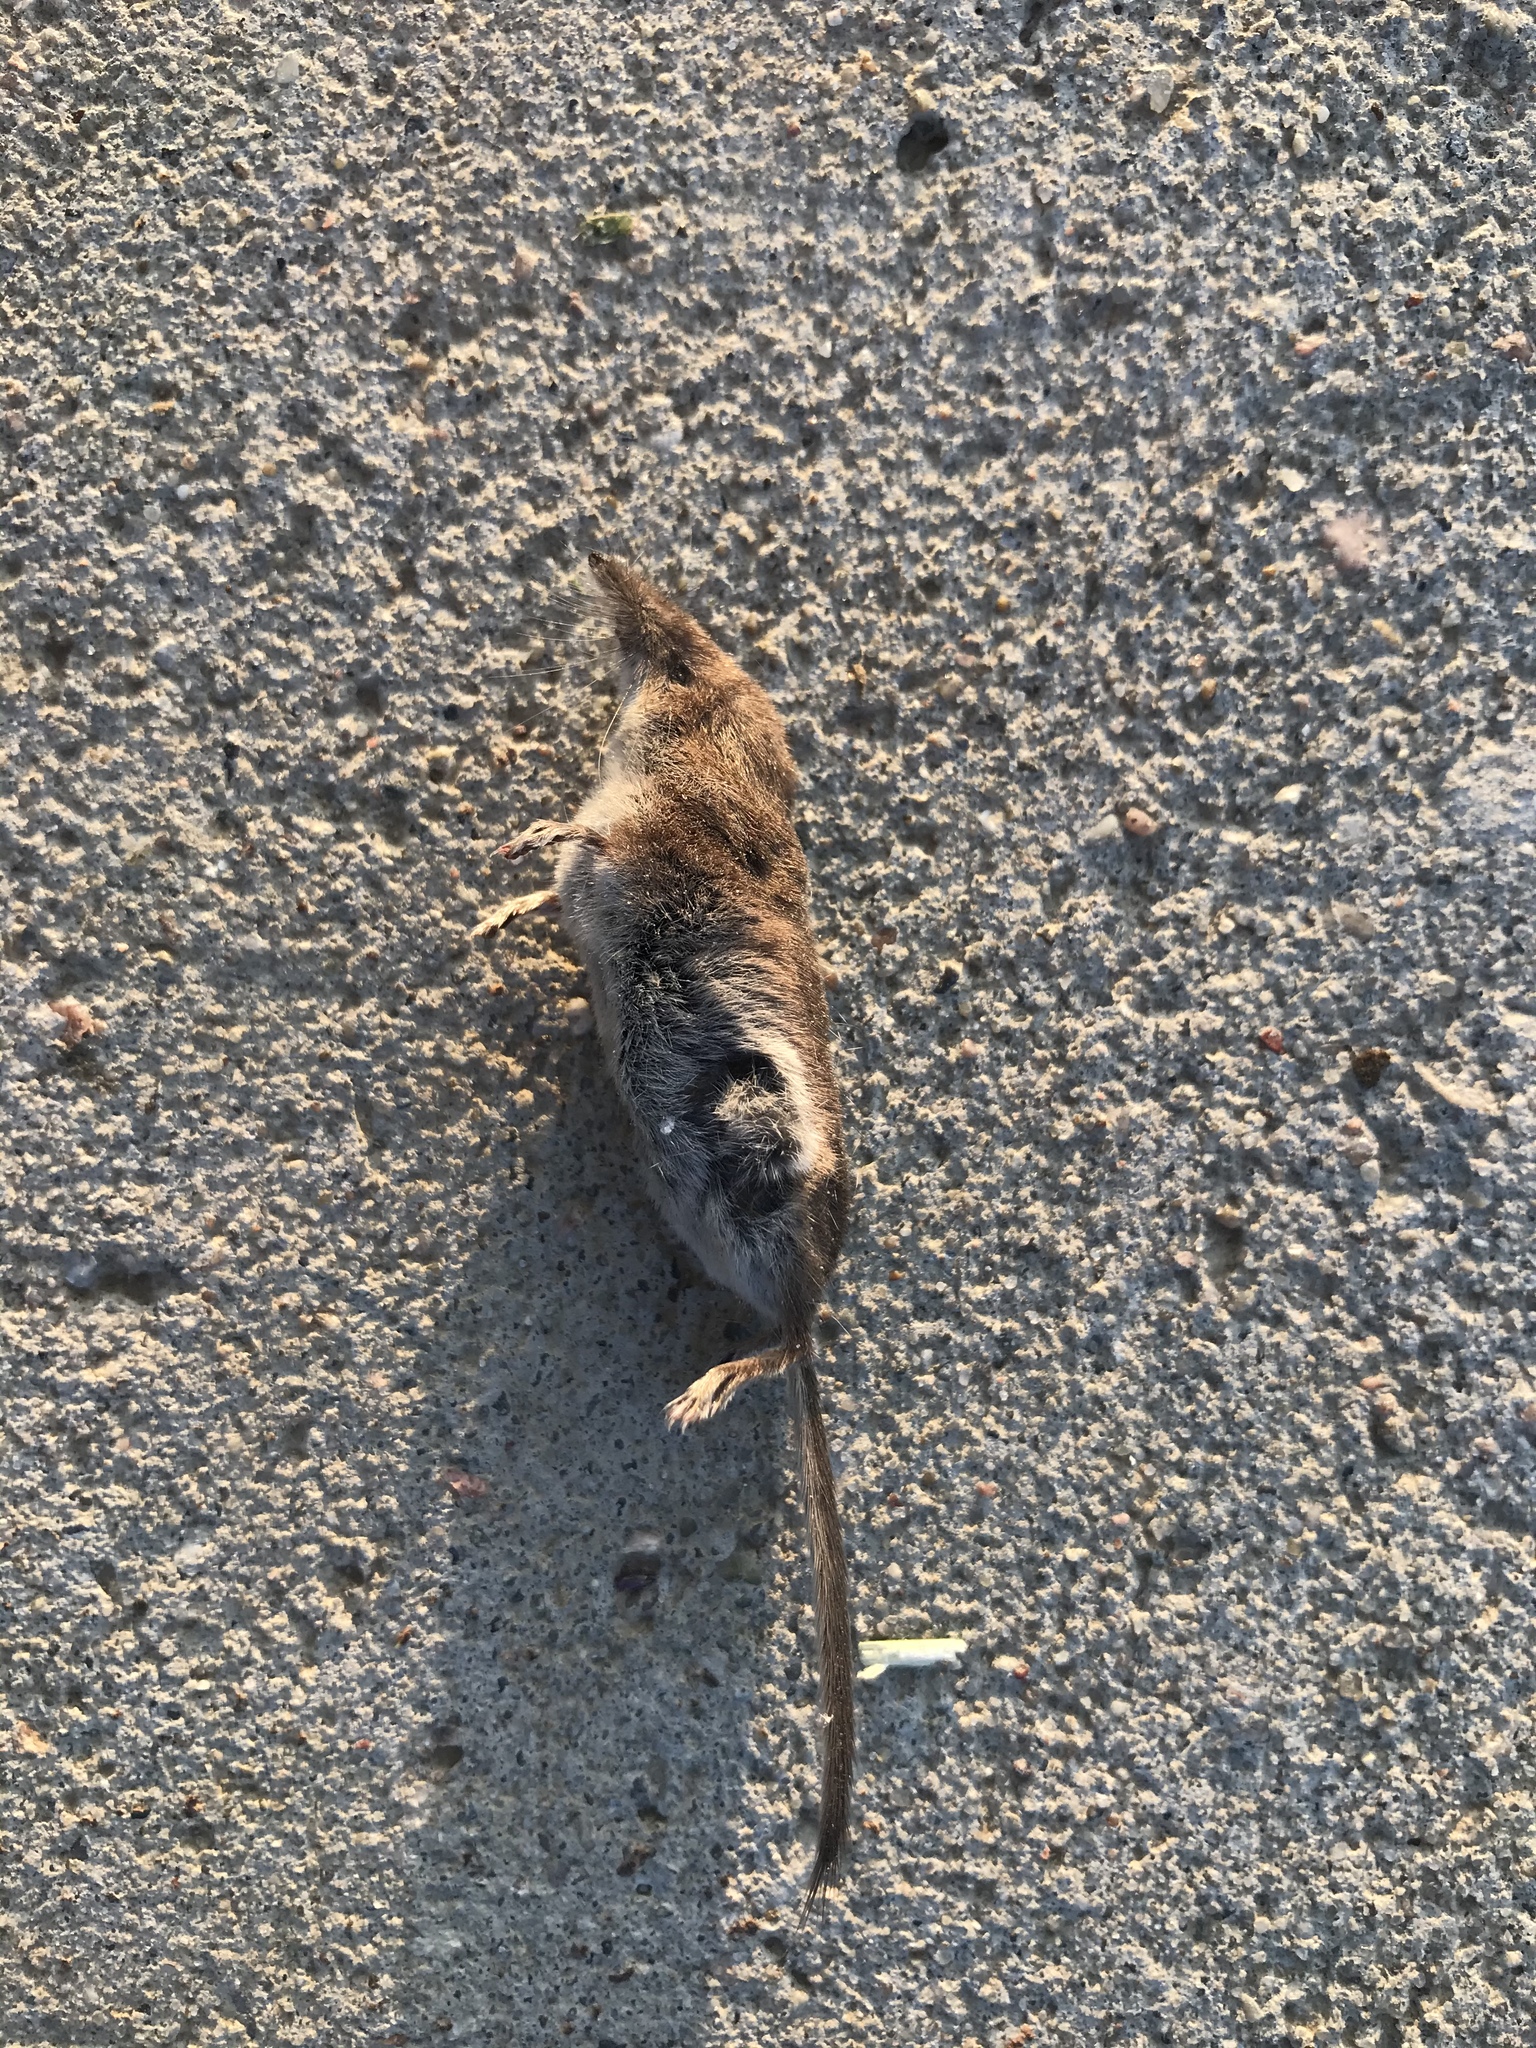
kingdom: Animalia
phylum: Chordata
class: Mammalia
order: Soricomorpha
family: Soricidae
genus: Sorex
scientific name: Sorex cinereus
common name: Cinereus shrew
